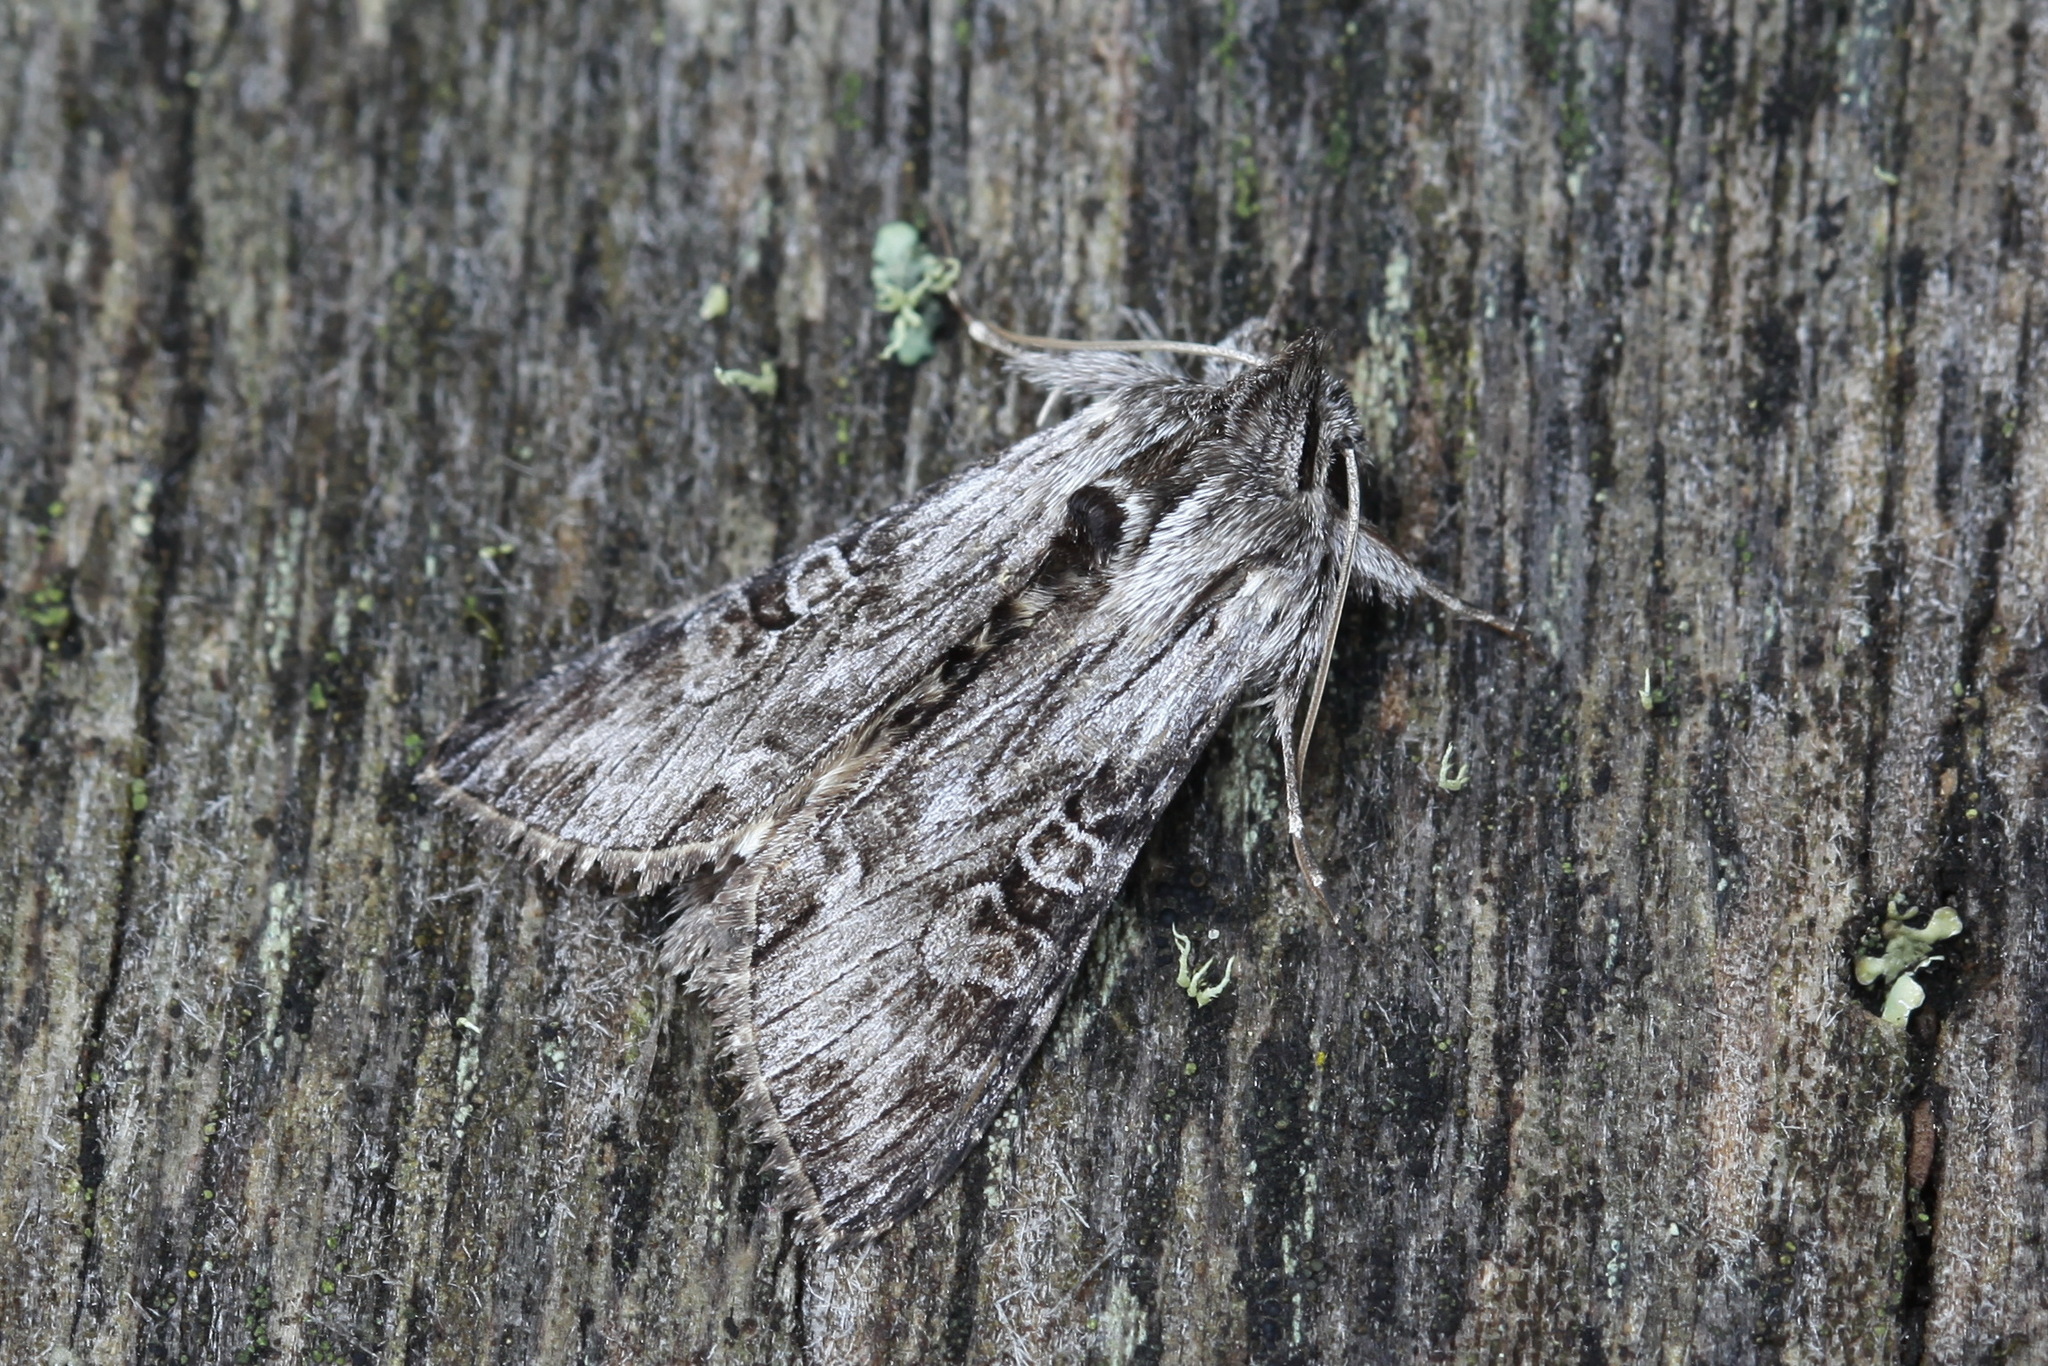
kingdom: Animalia
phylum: Arthropoda
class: Insecta
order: Lepidoptera
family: Noctuidae
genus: Cucullia
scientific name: Cucullia gnaphalii
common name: Cudweed
